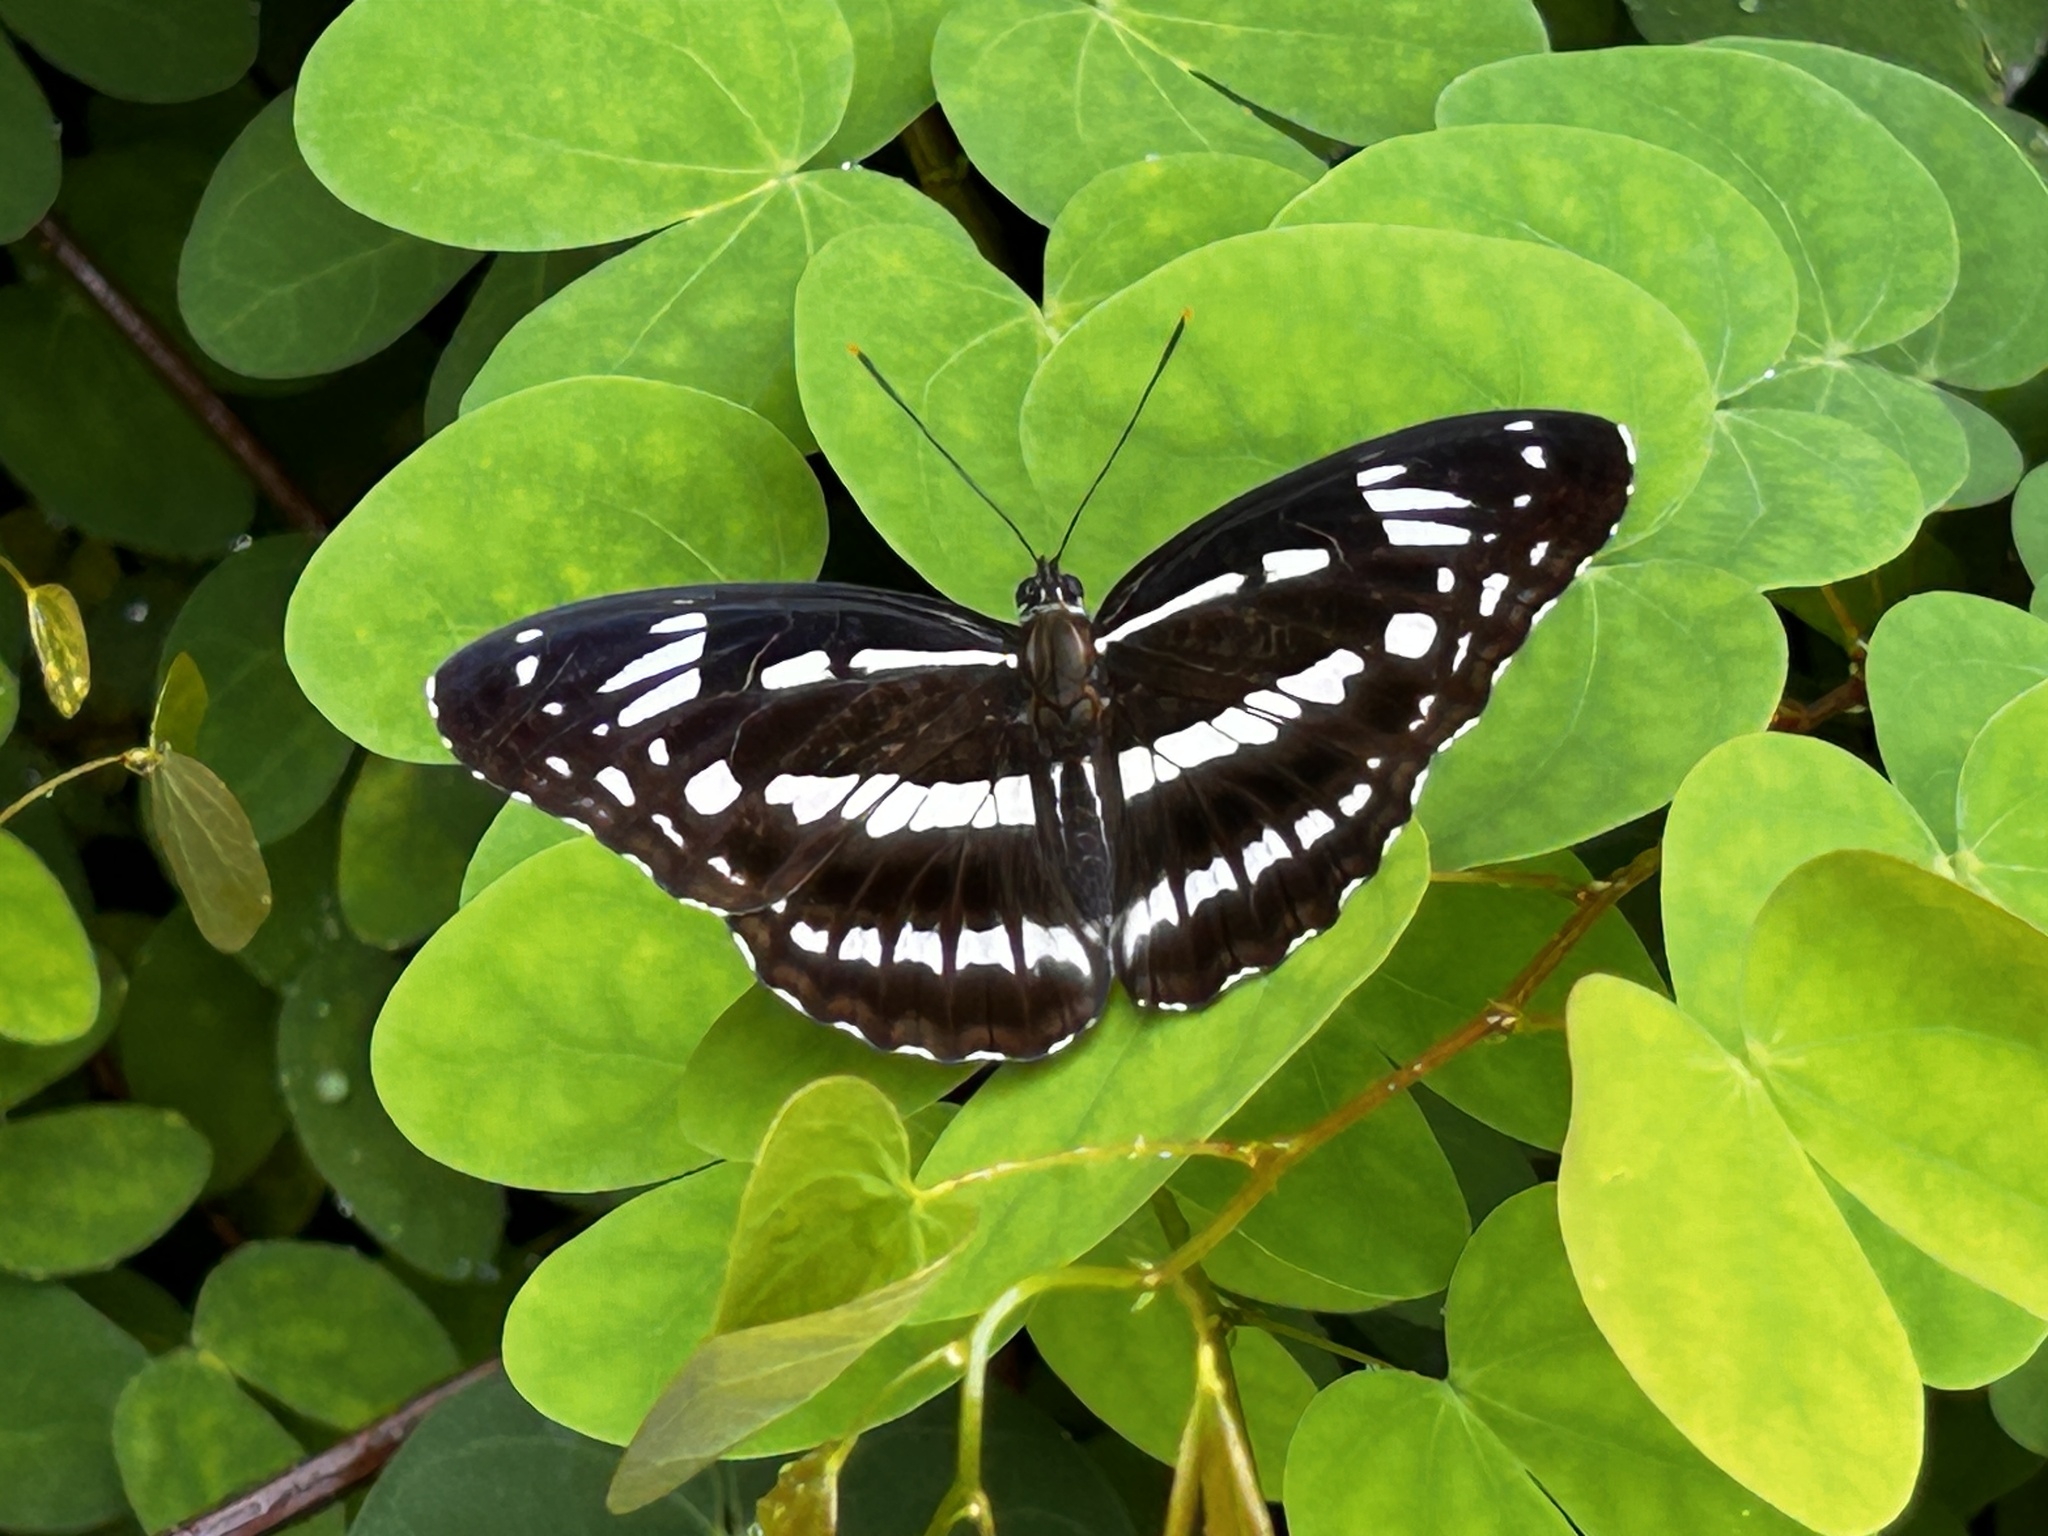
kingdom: Animalia
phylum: Arthropoda
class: Insecta
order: Lepidoptera
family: Nymphalidae
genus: Limenitis
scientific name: Limenitis sulpitia
